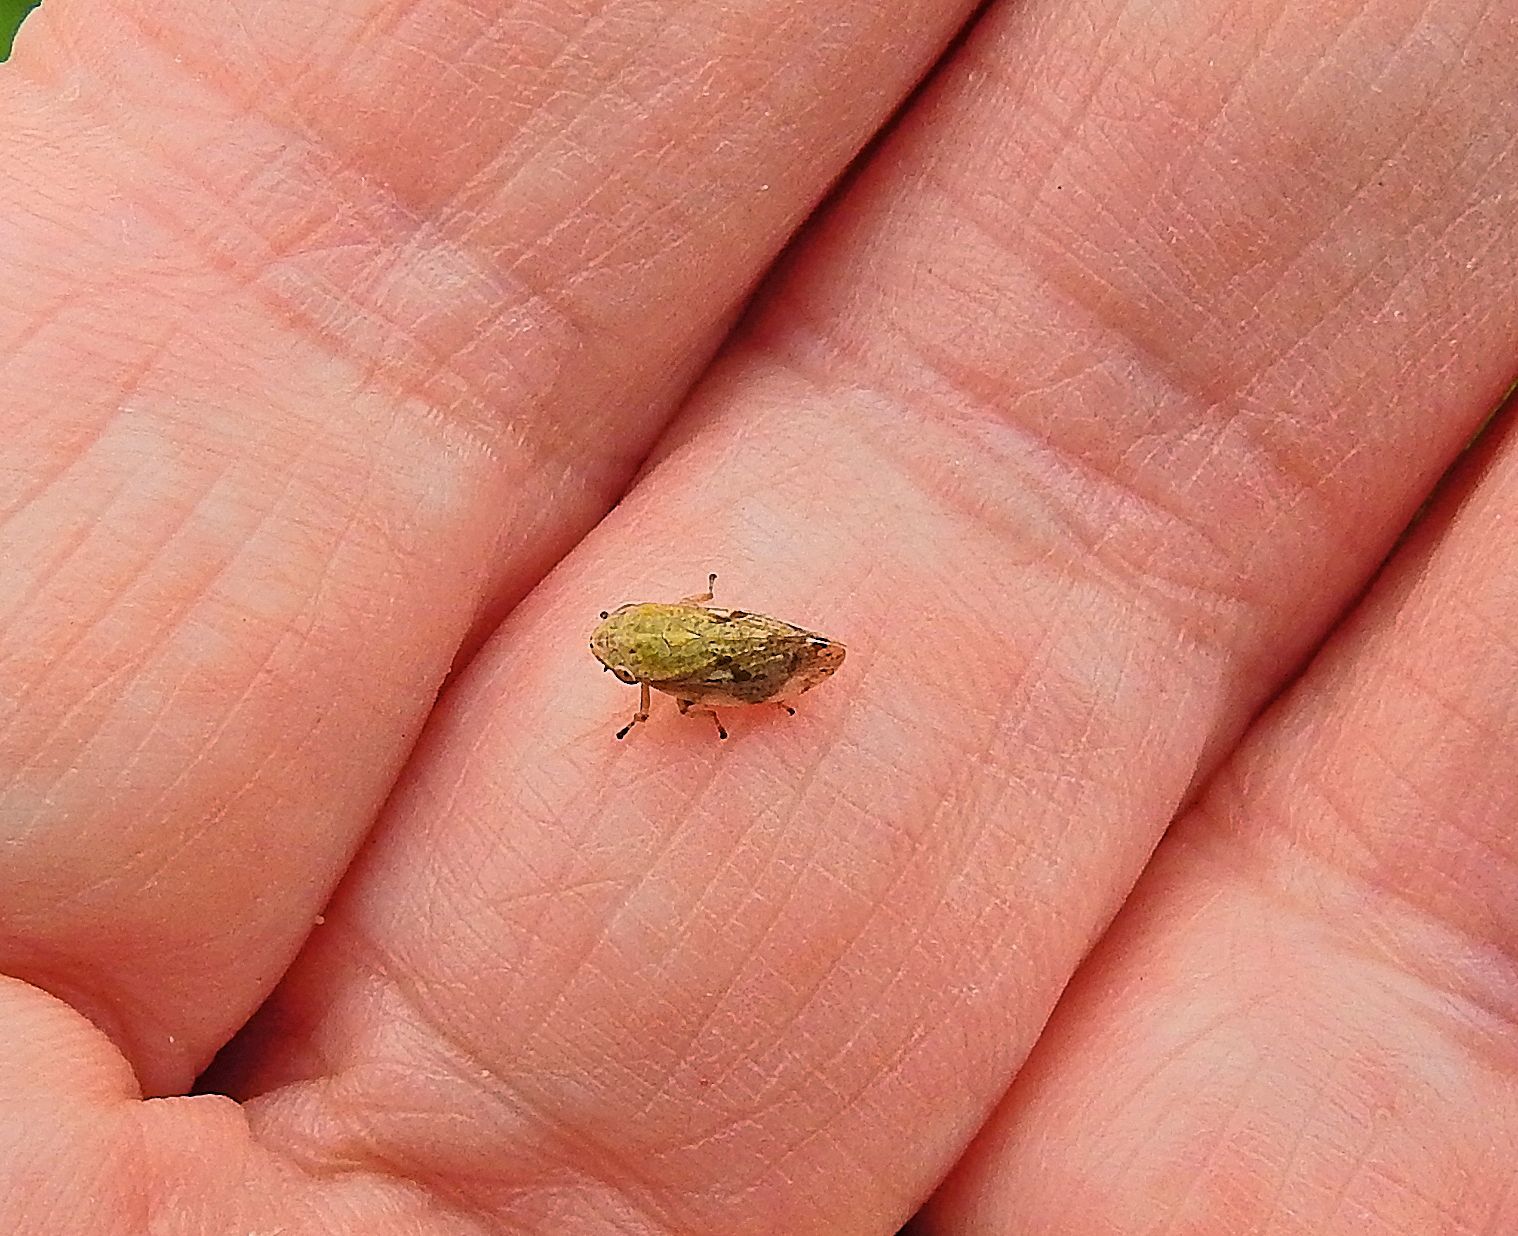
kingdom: Animalia
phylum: Arthropoda
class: Insecta
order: Hemiptera
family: Aphrophoridae
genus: Philaenus
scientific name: Philaenus spumarius
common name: Meadow spittlebug
